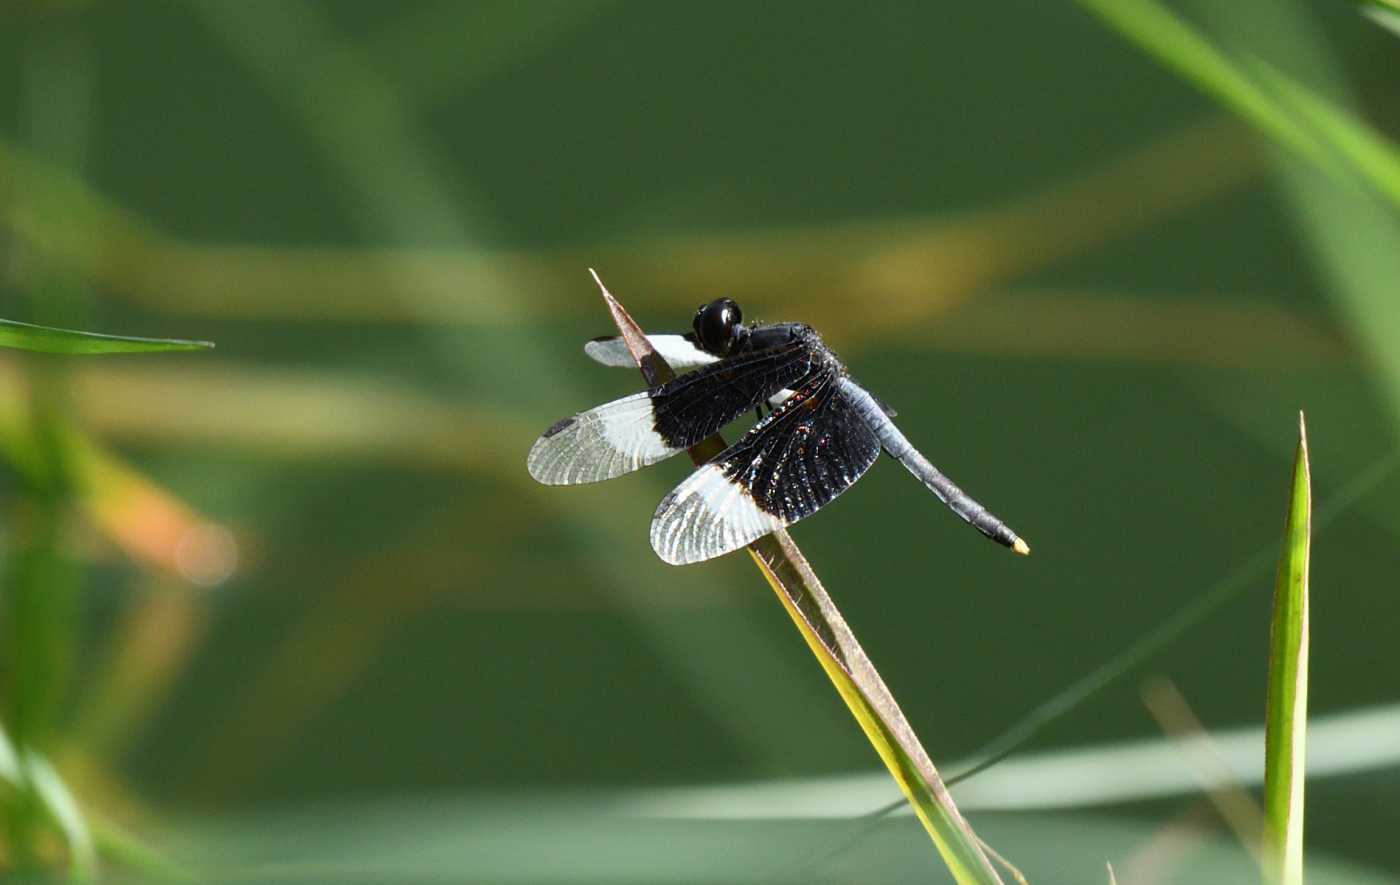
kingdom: Animalia
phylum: Arthropoda
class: Insecta
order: Odonata
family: Libellulidae
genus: Neurothemis
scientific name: Neurothemis tullia
